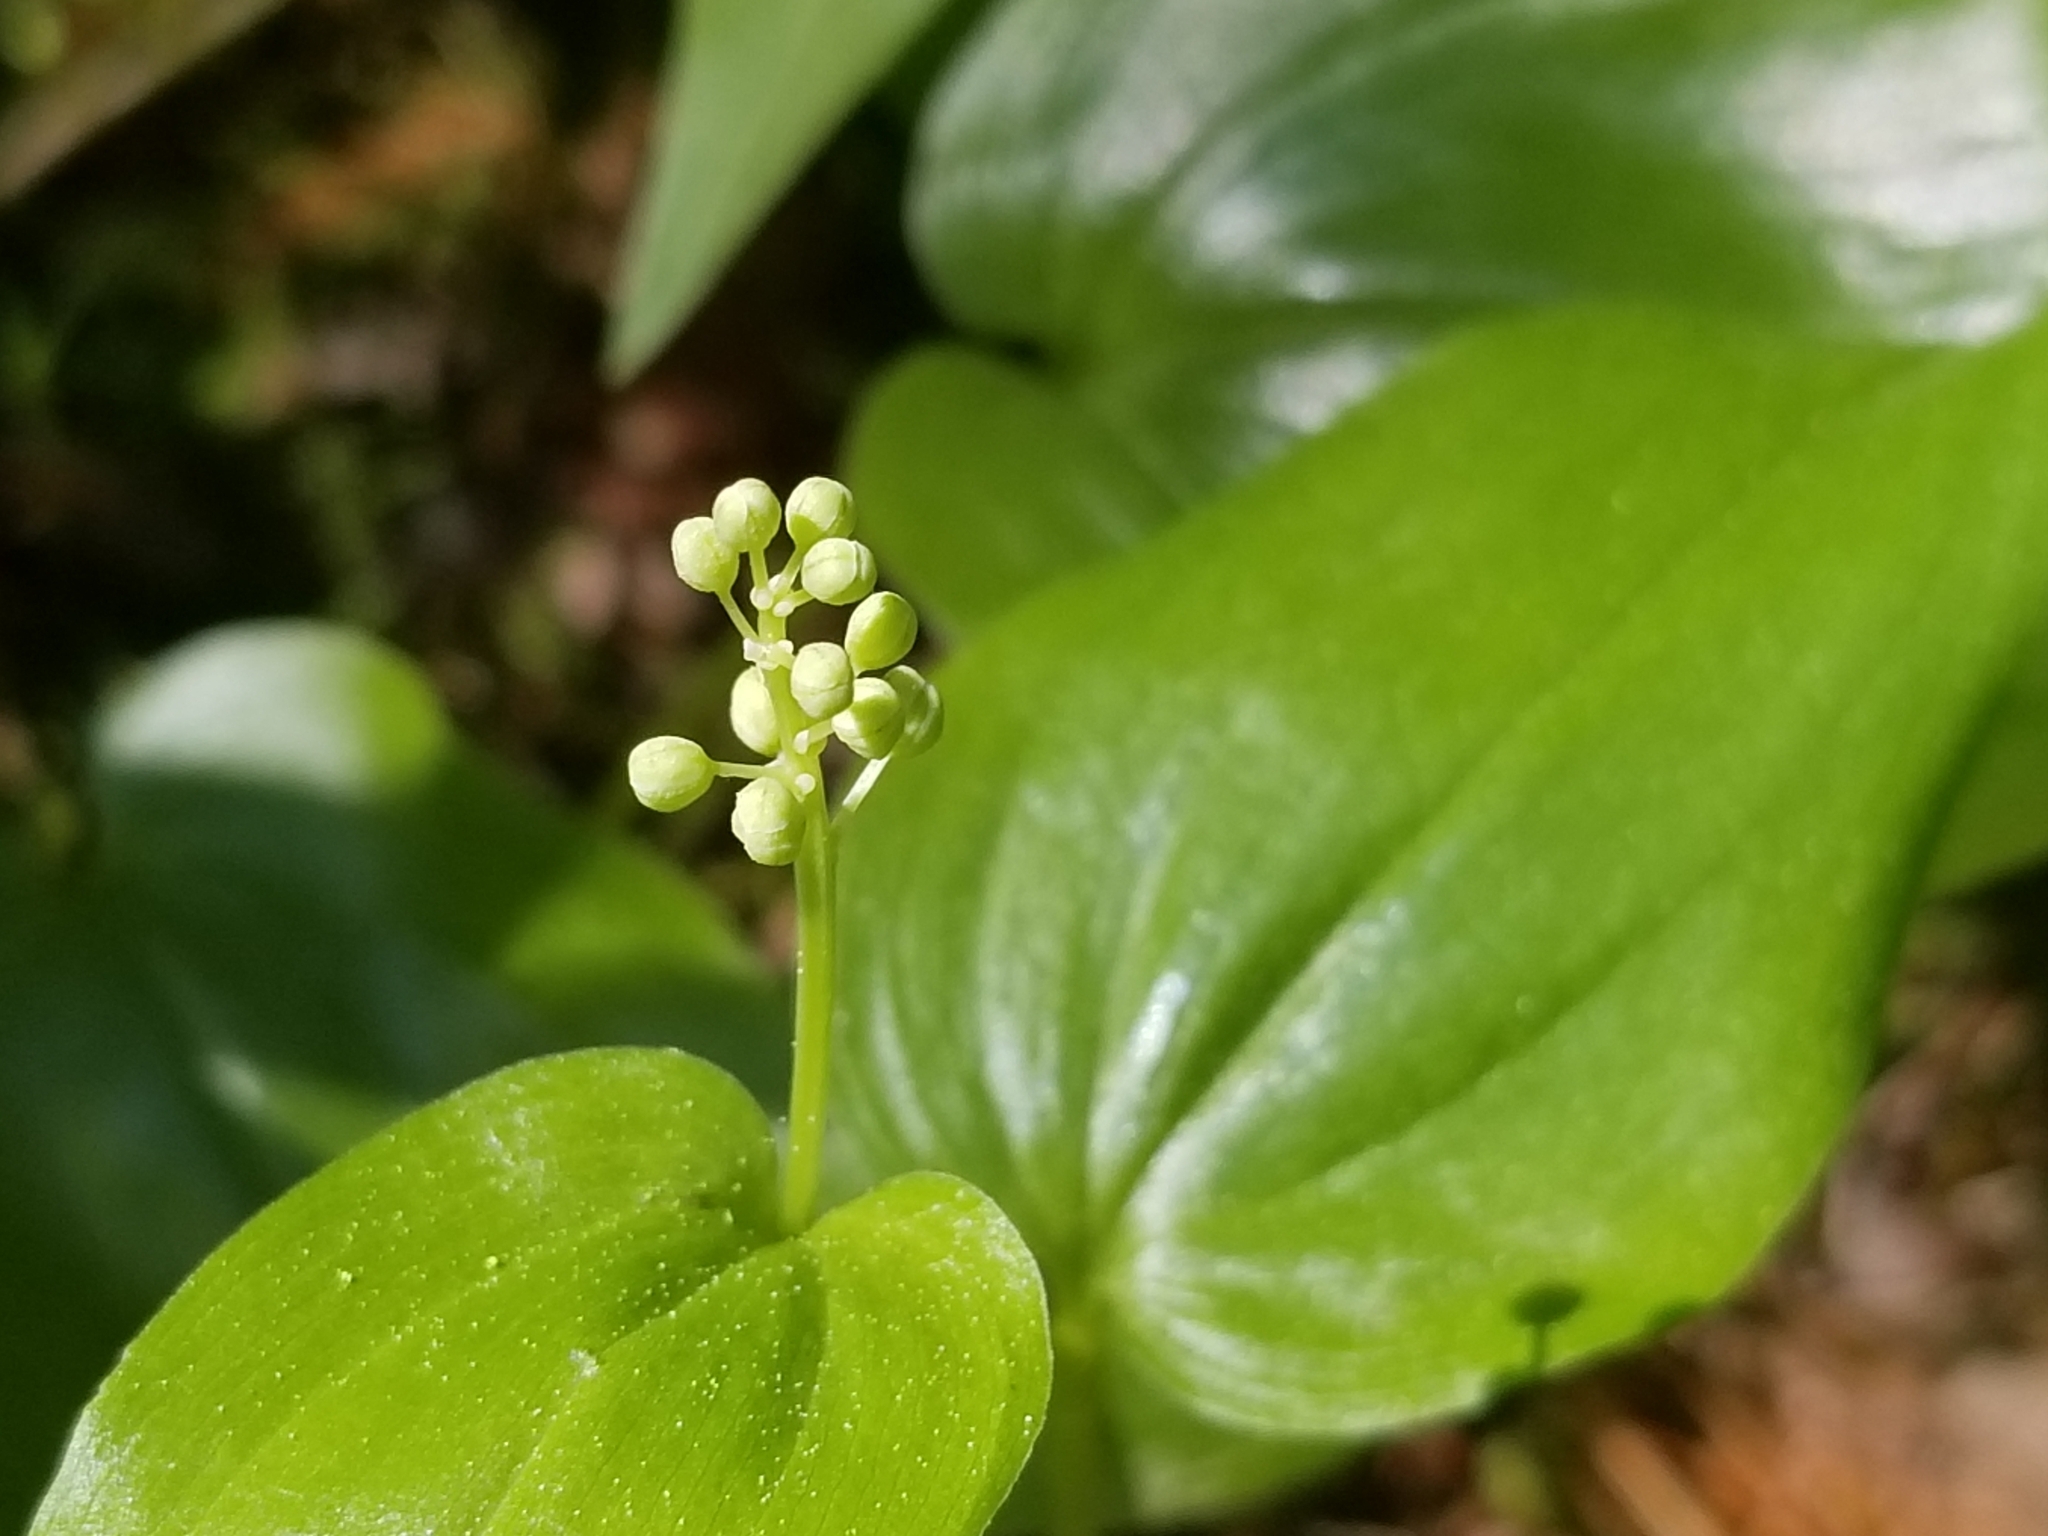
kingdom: Plantae
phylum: Tracheophyta
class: Liliopsida
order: Asparagales
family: Asparagaceae
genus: Maianthemum
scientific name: Maianthemum canadense
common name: False lily-of-the-valley
